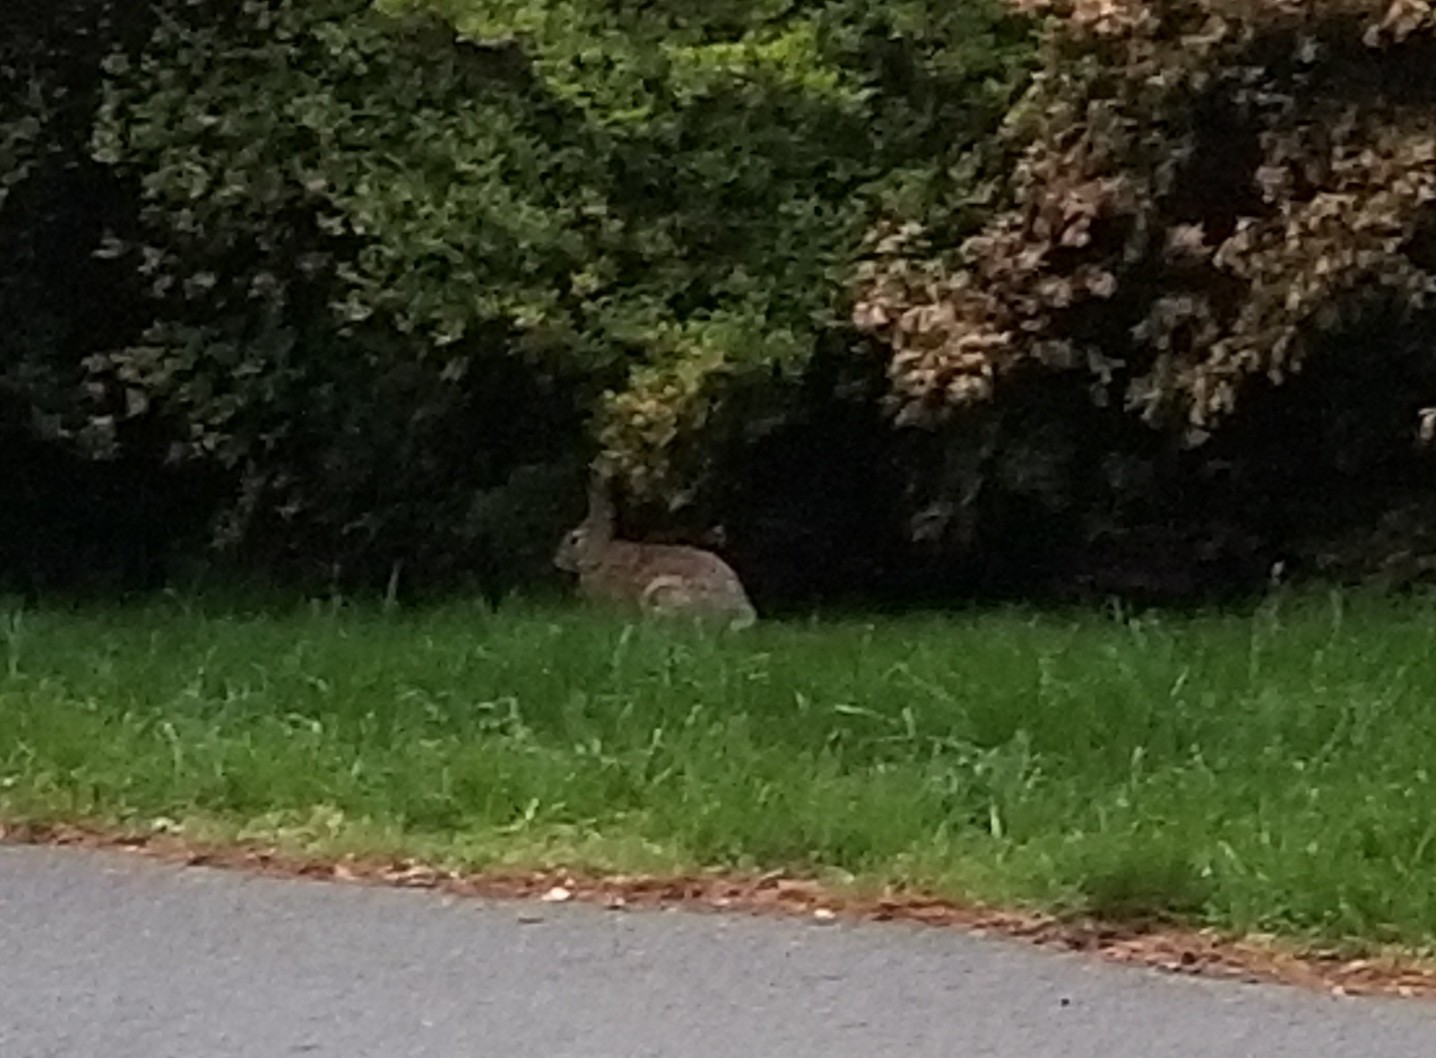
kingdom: Animalia
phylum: Chordata
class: Mammalia
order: Lagomorpha
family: Leporidae
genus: Sylvilagus
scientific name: Sylvilagus floridanus
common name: Eastern cottontail
